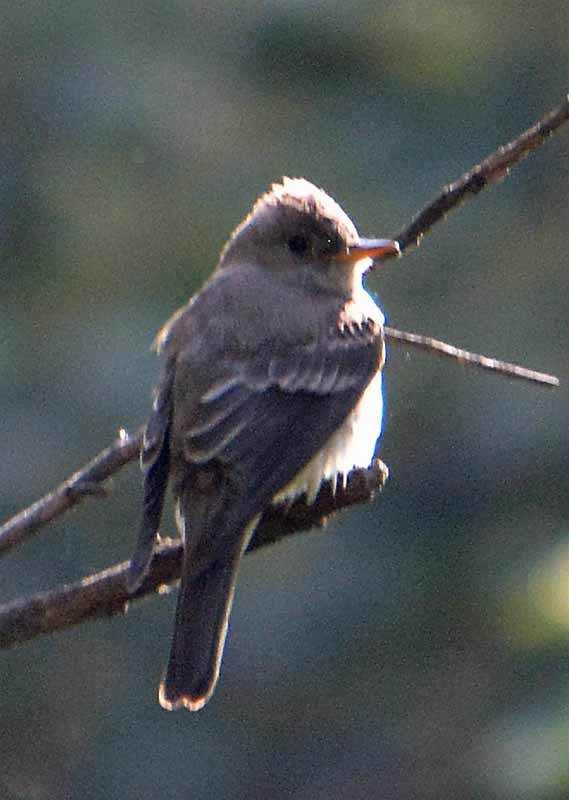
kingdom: Animalia
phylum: Chordata
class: Aves
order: Passeriformes
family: Tyrannidae
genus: Contopus
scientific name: Contopus sordidulus
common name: Western wood-pewee
